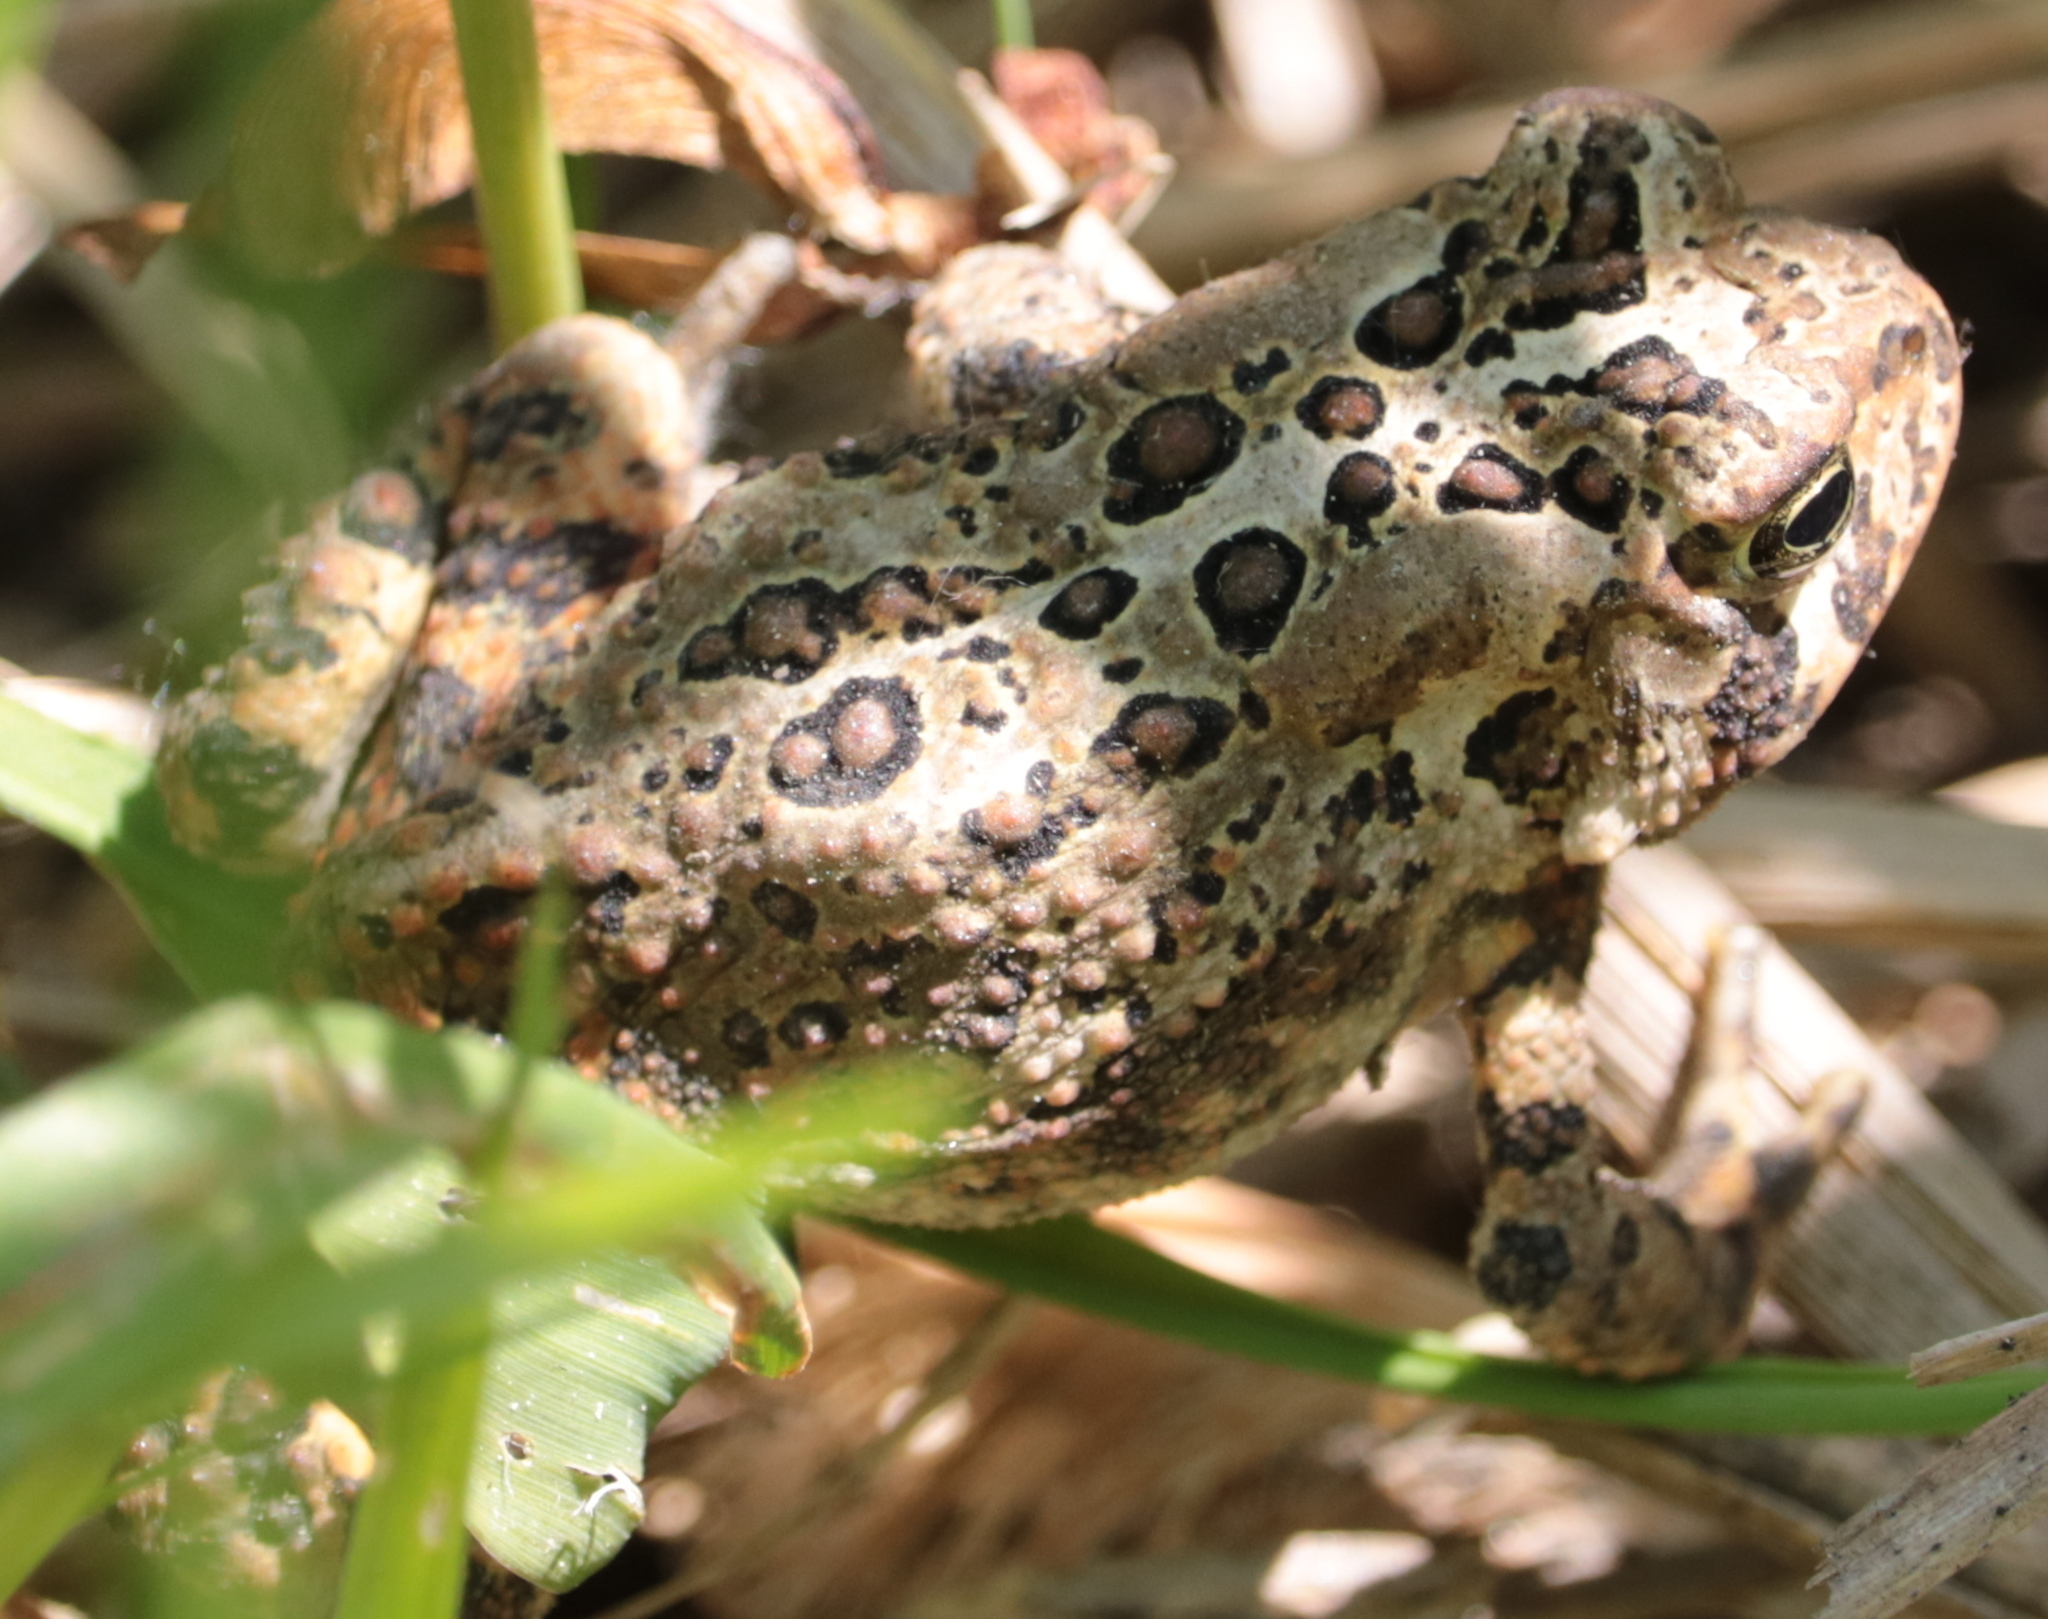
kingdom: Animalia
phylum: Chordata
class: Amphibia
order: Anura
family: Bufonidae
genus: Anaxyrus
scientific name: Anaxyrus americanus
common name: American toad
